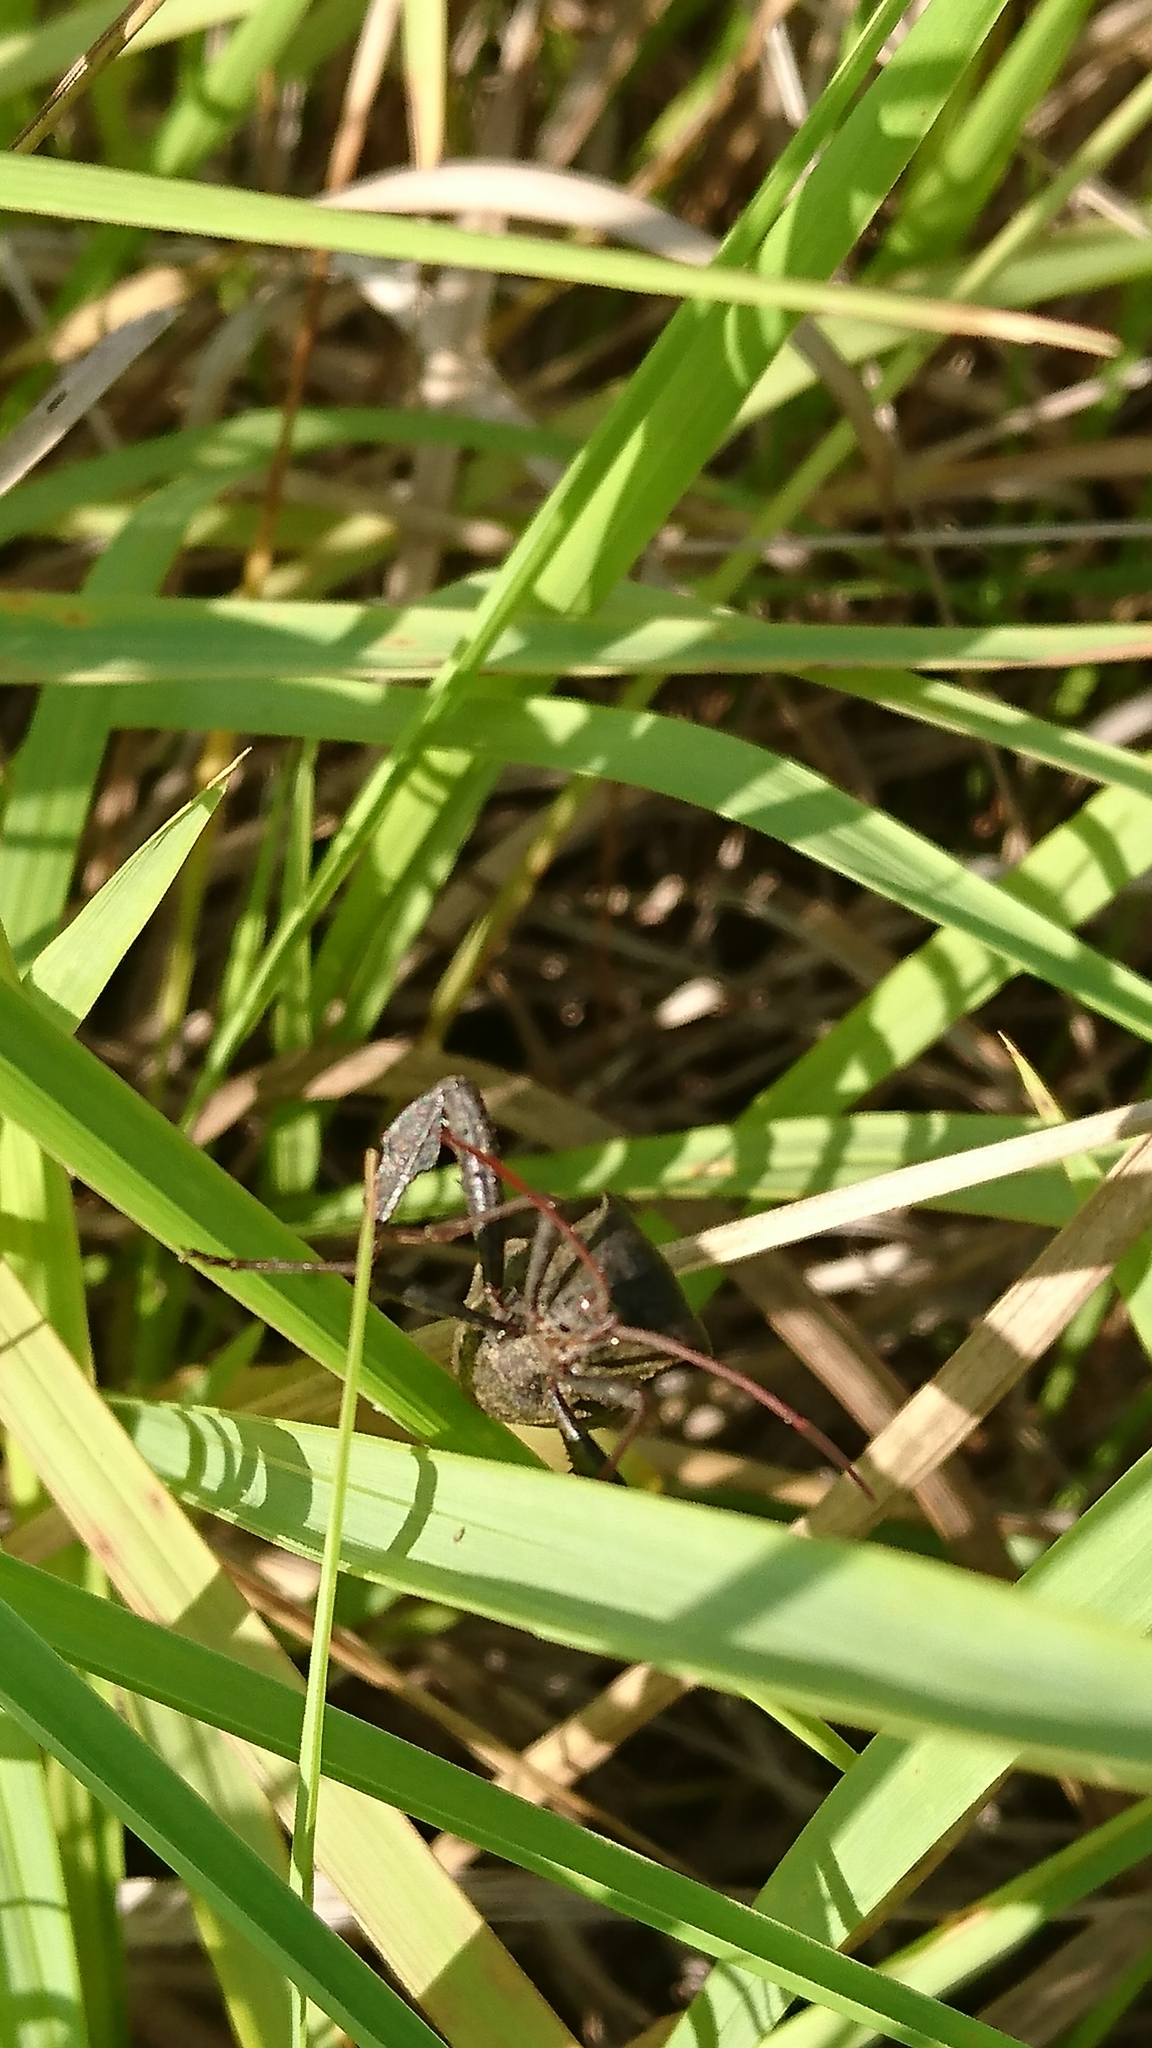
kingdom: Animalia
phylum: Arthropoda
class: Insecta
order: Hemiptera
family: Coreidae
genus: Acanthocephala
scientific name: Acanthocephala femorata
